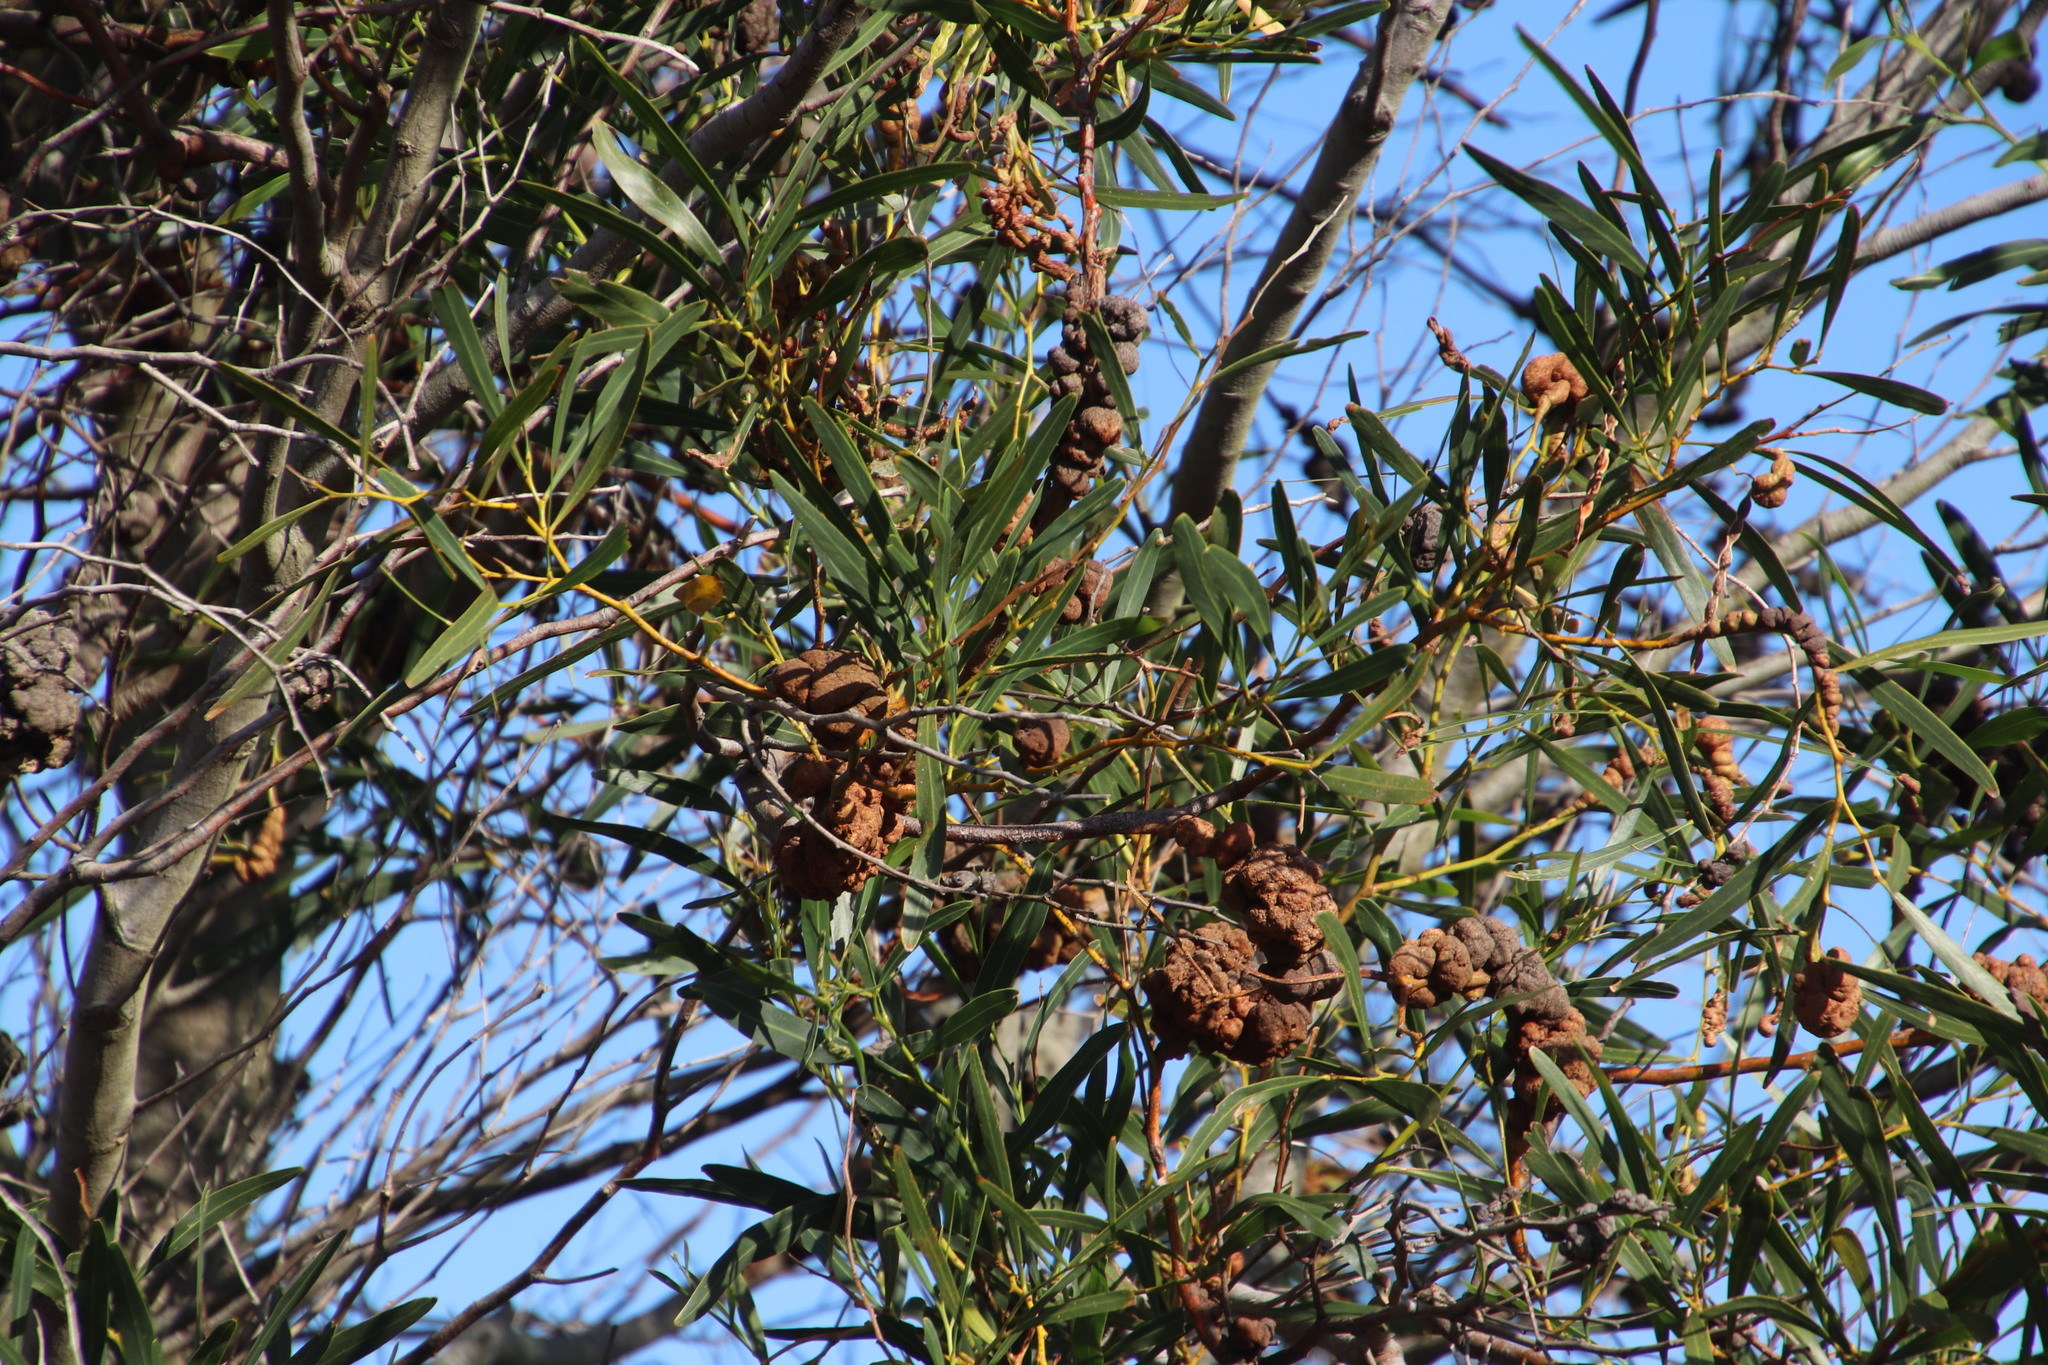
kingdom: Plantae
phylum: Tracheophyta
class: Magnoliopsida
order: Fabales
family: Fabaceae
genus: Acacia
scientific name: Acacia saligna
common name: Orange wattle
